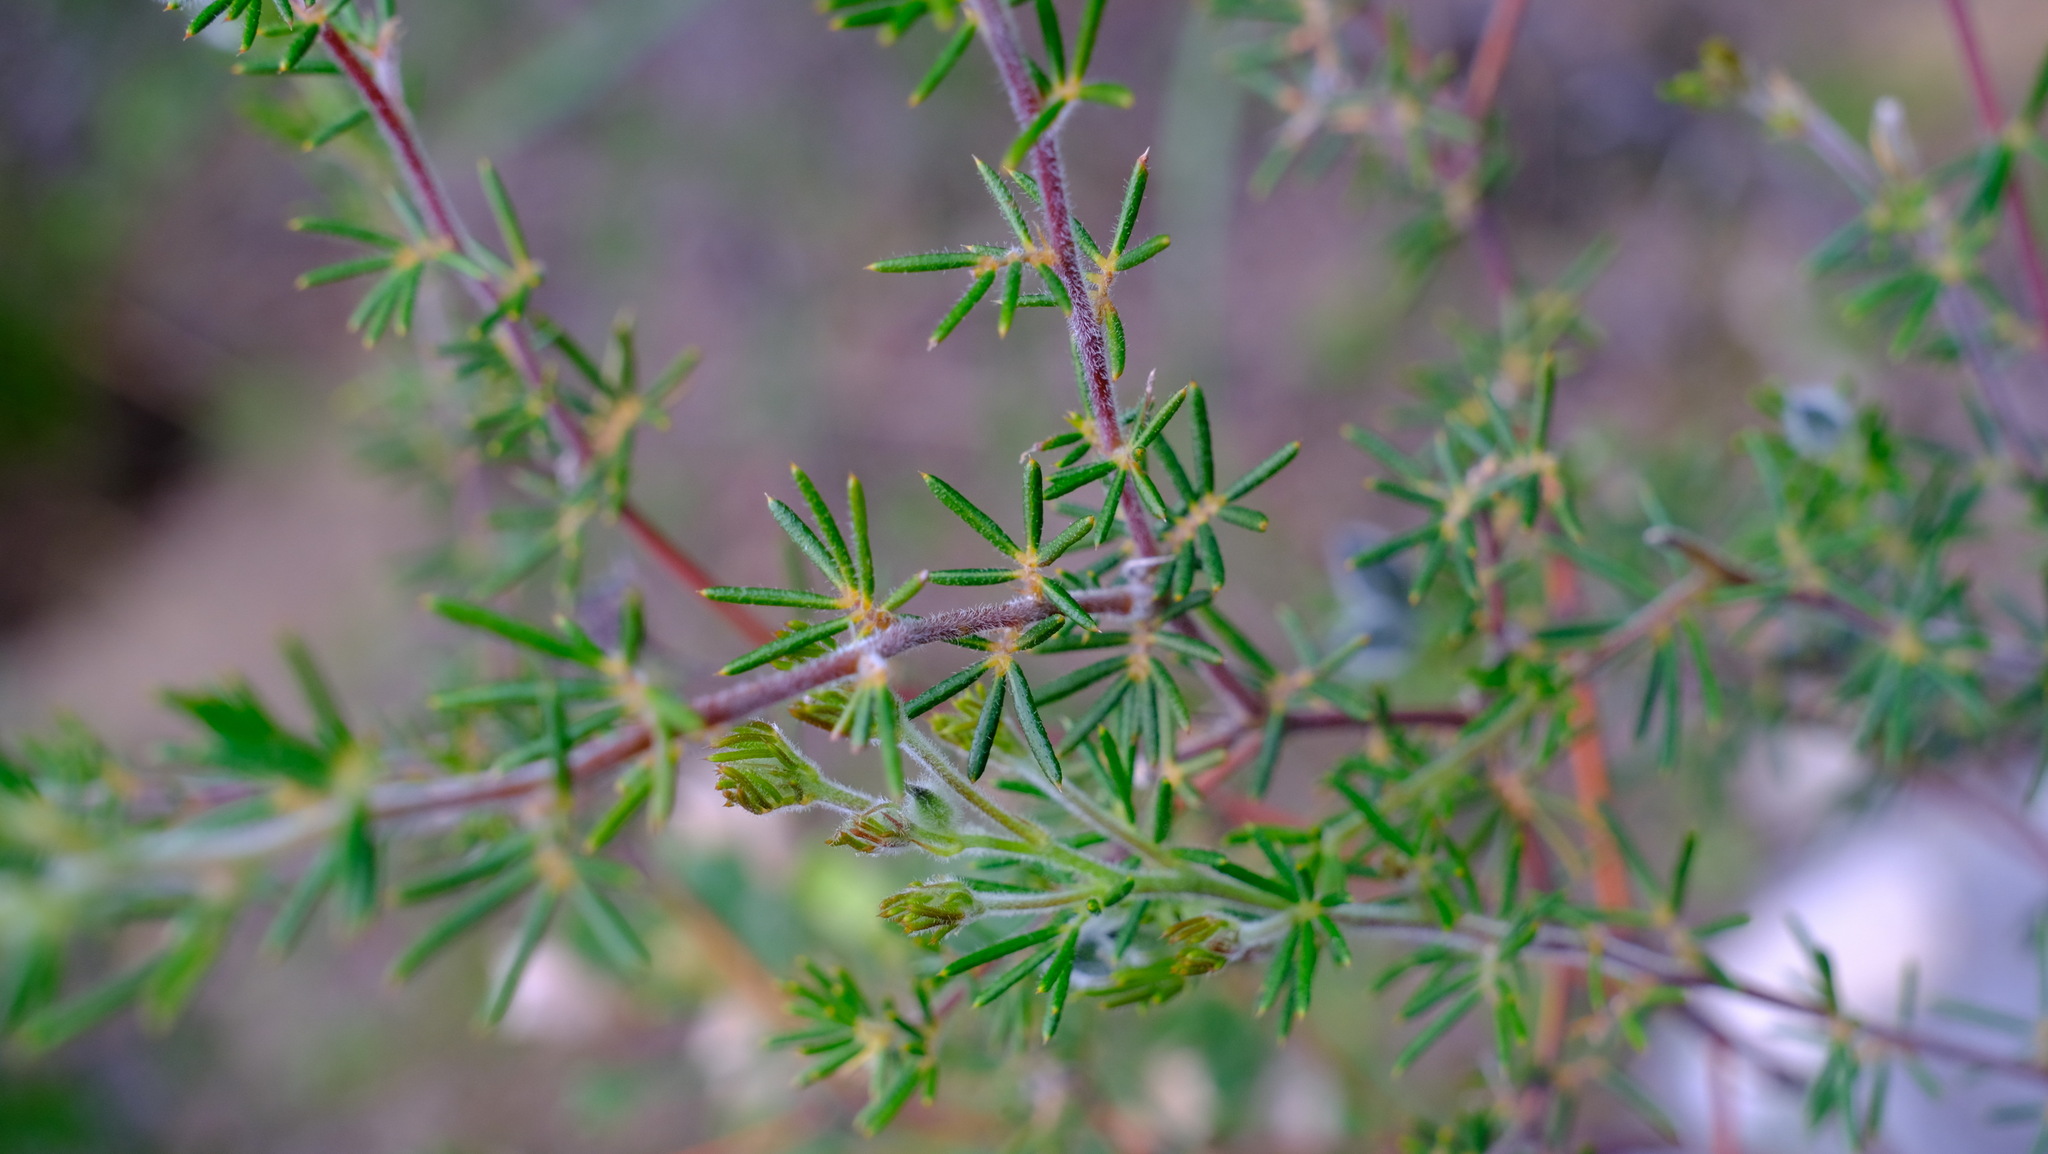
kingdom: Plantae
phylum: Tracheophyta
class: Magnoliopsida
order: Fabales
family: Fabaceae
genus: Gompholobium
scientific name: Gompholobium tomentosum
